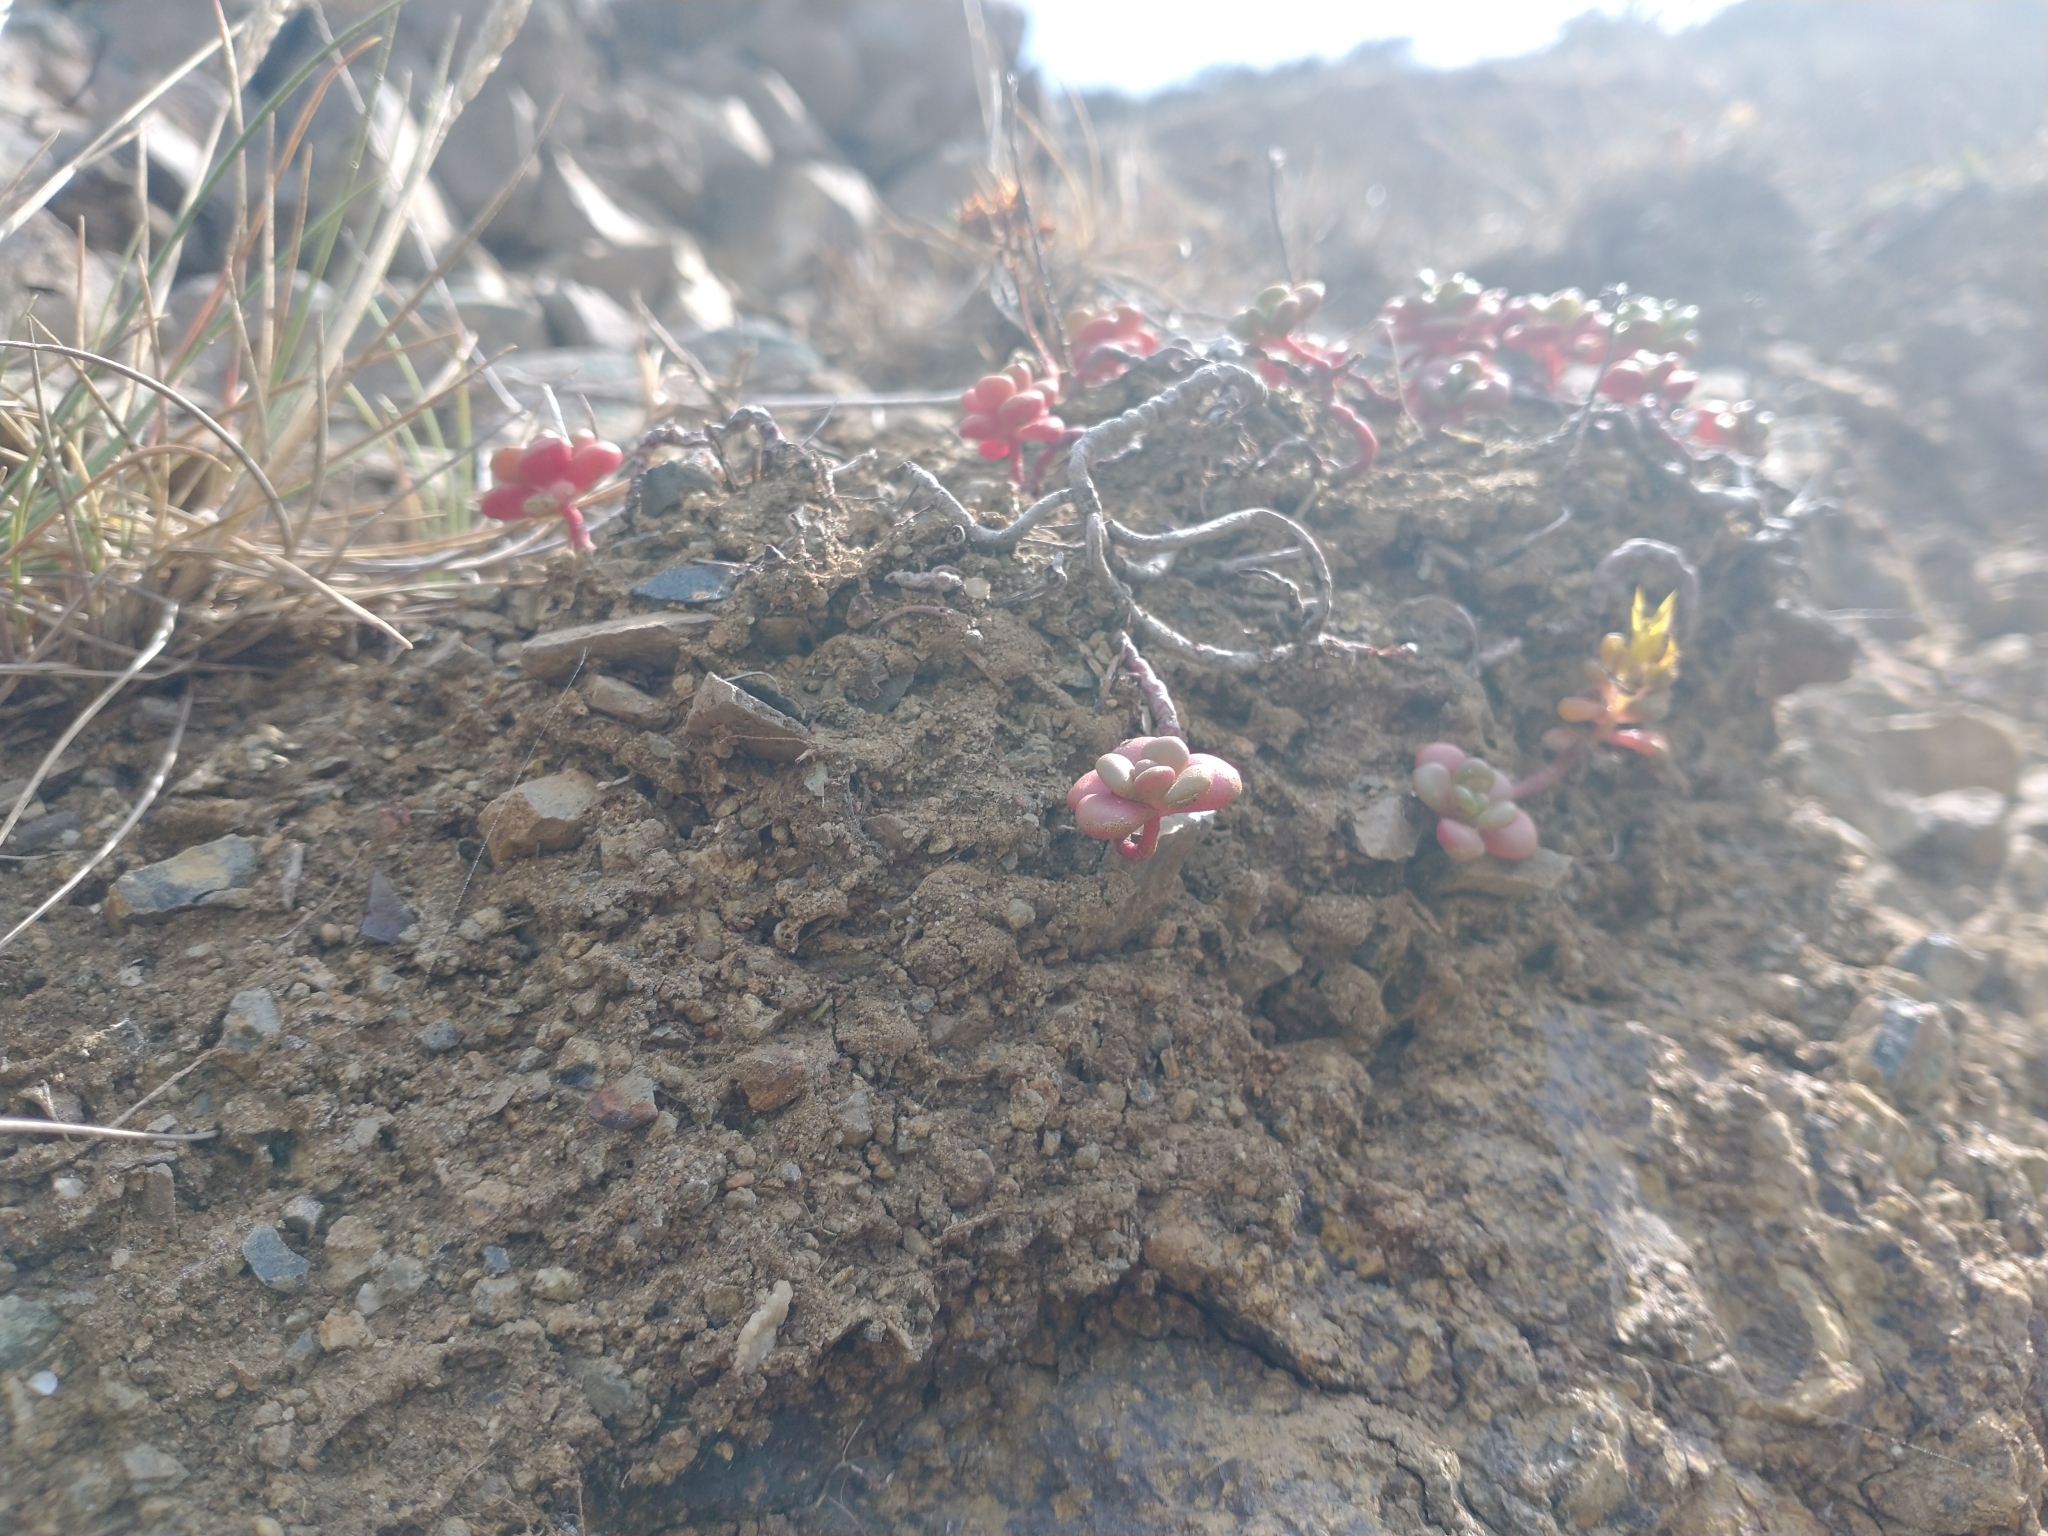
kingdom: Plantae
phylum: Tracheophyta
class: Magnoliopsida
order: Saxifragales
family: Crassulaceae
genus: Sedum
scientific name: Sedum oreganum
